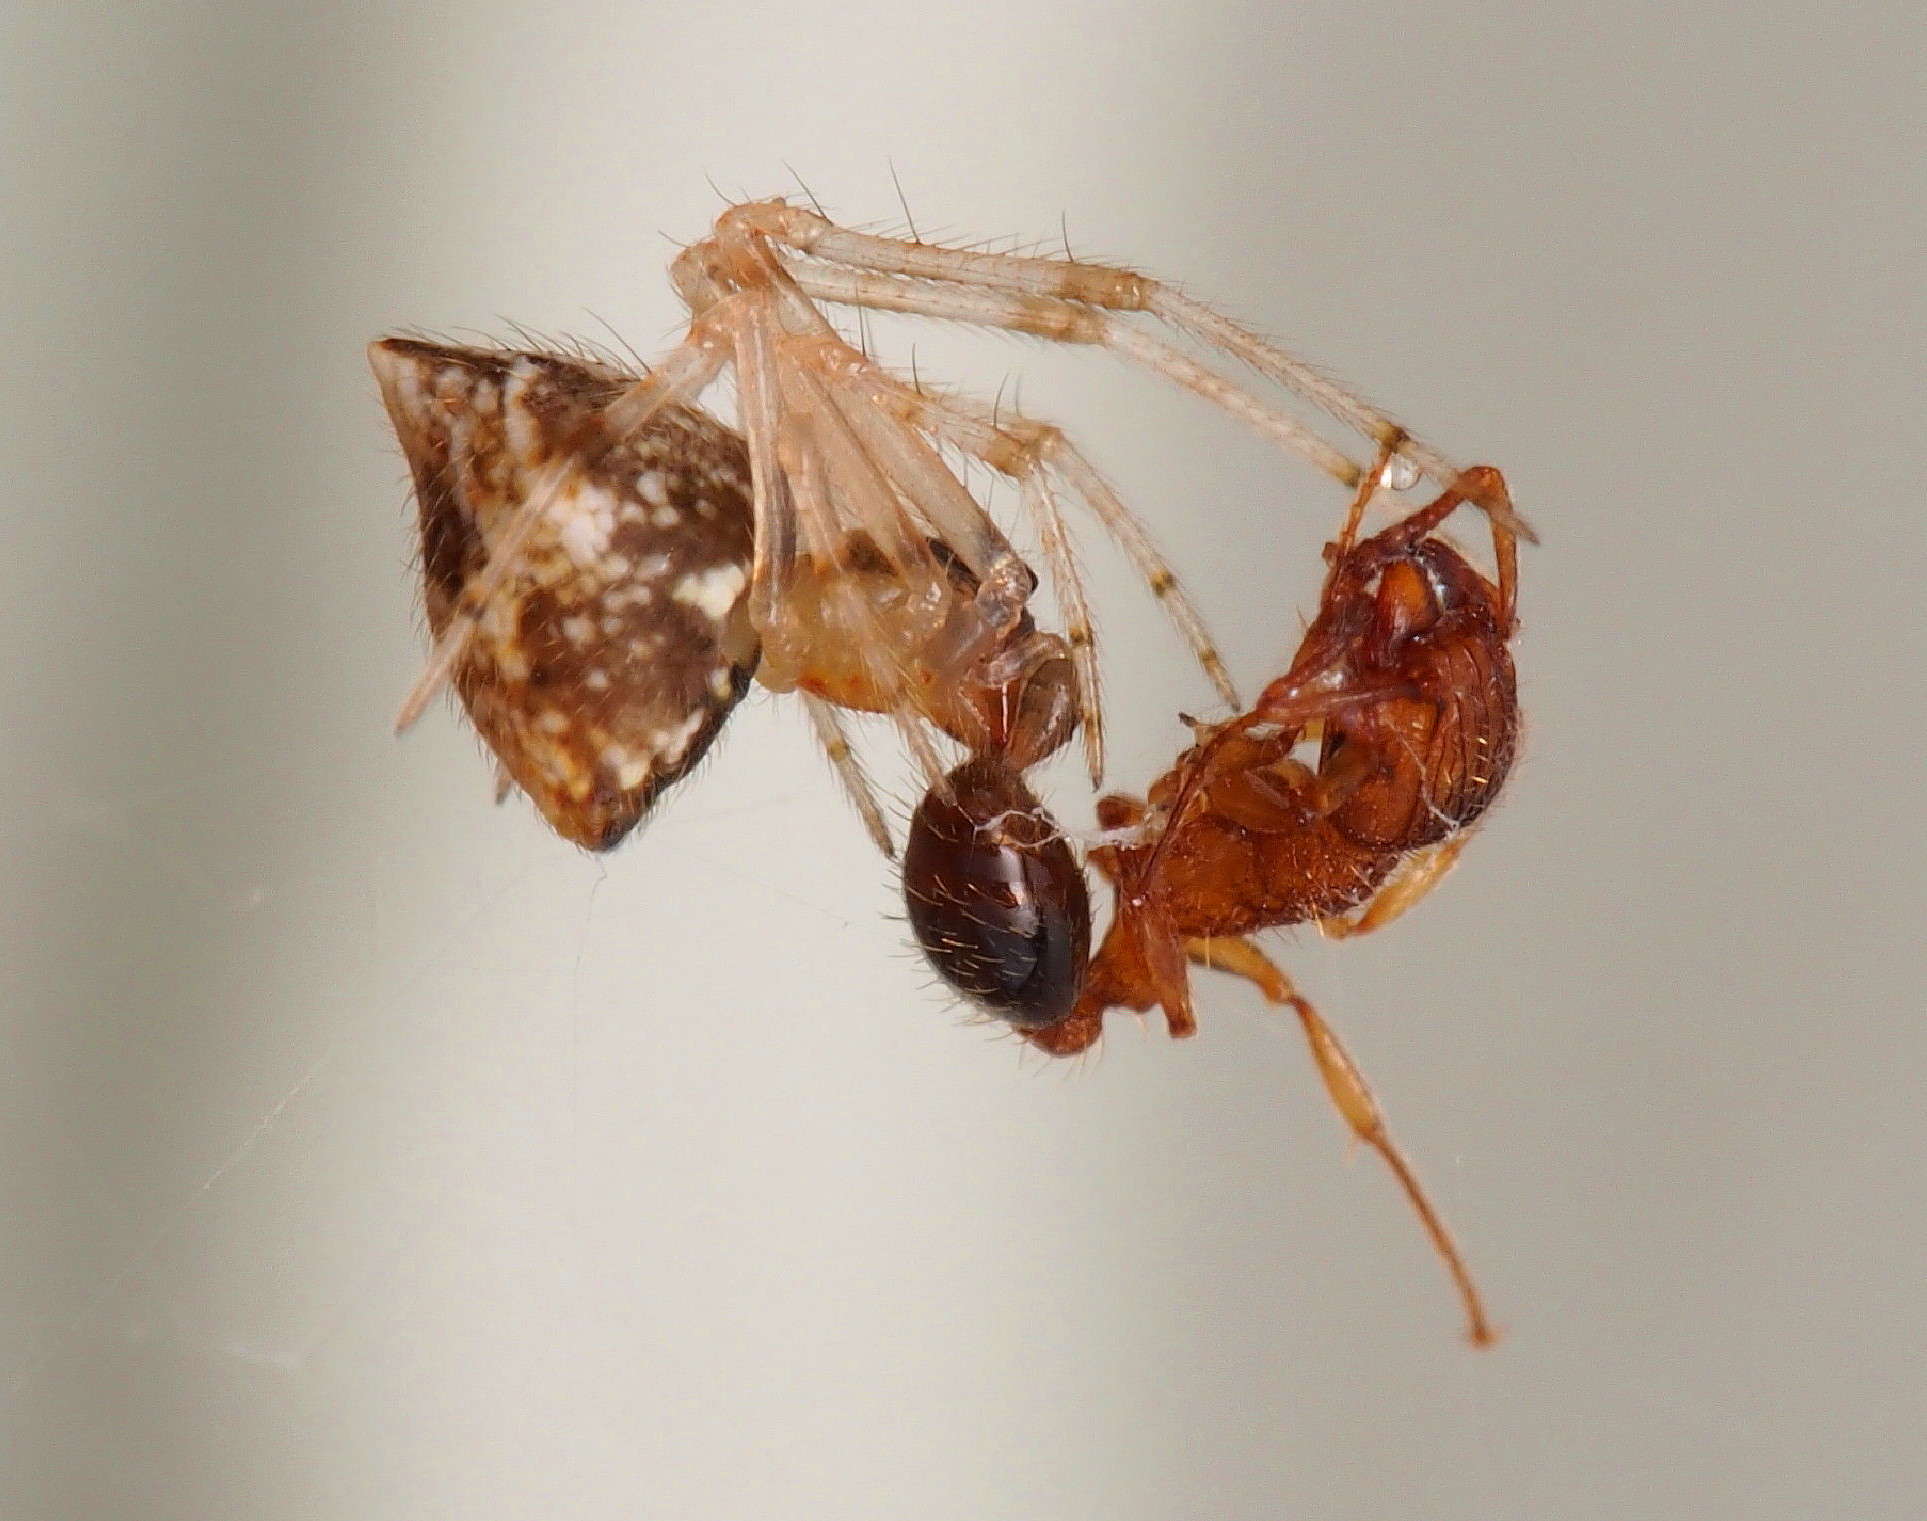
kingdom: Animalia
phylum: Arthropoda
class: Arachnida
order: Araneae
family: Theridiidae
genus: Cryptachaea
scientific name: Cryptachaea meraukensis
